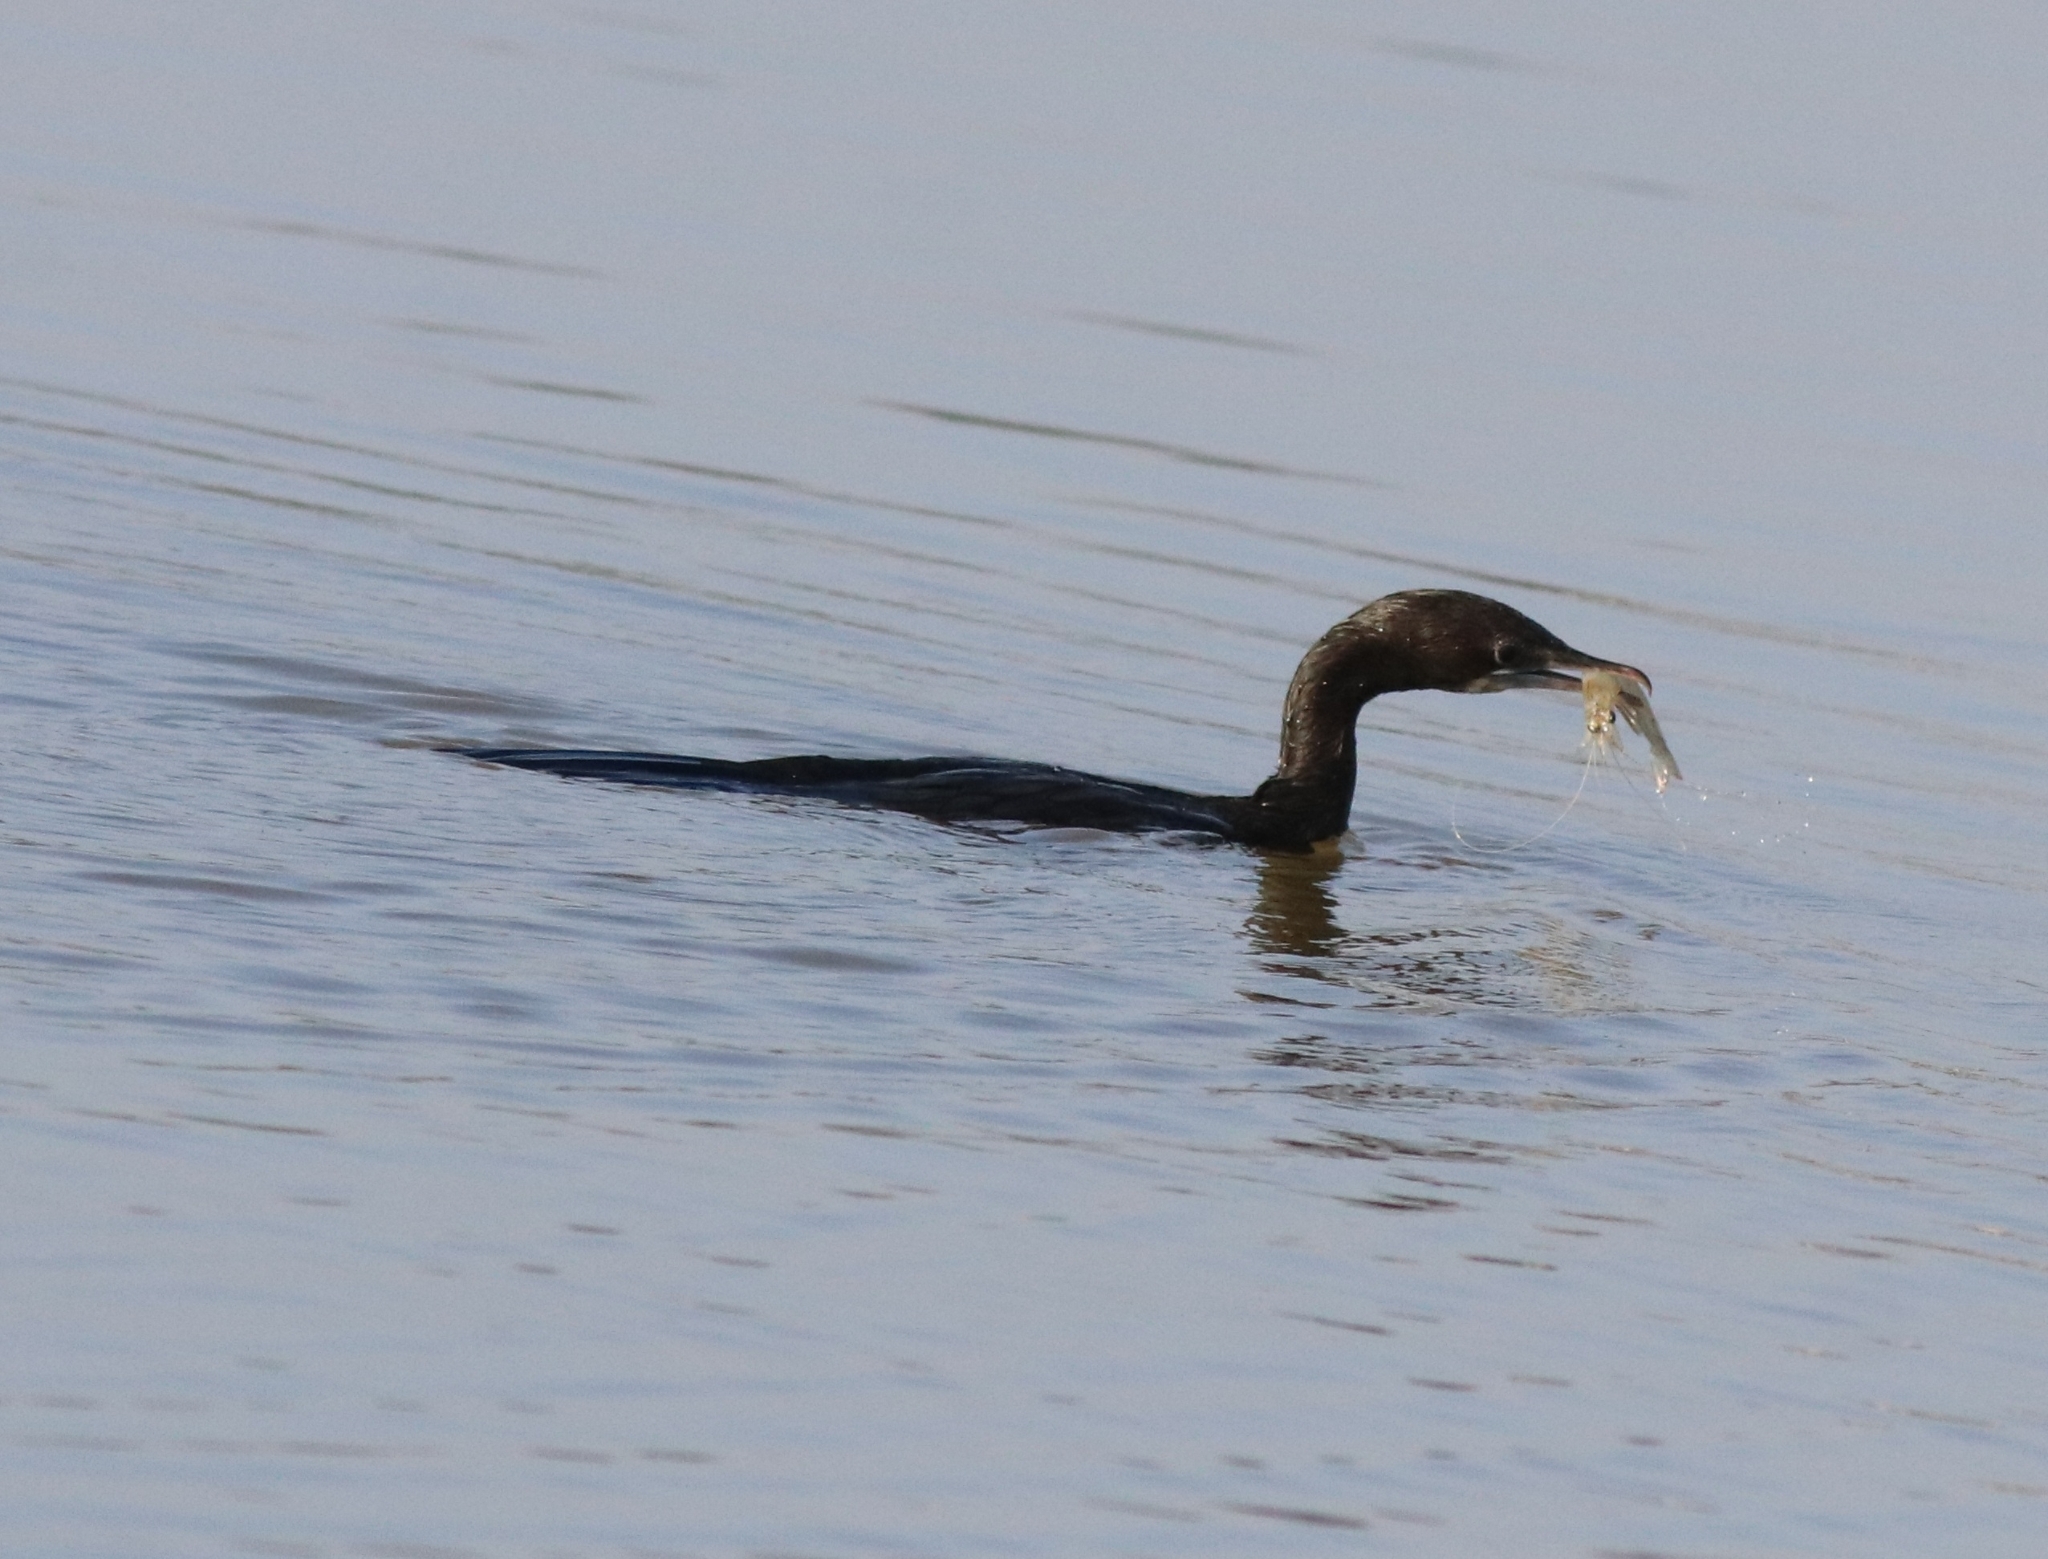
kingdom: Animalia
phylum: Chordata
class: Aves
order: Suliformes
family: Phalacrocoracidae
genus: Microcarbo
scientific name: Microcarbo niger
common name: Little cormorant
